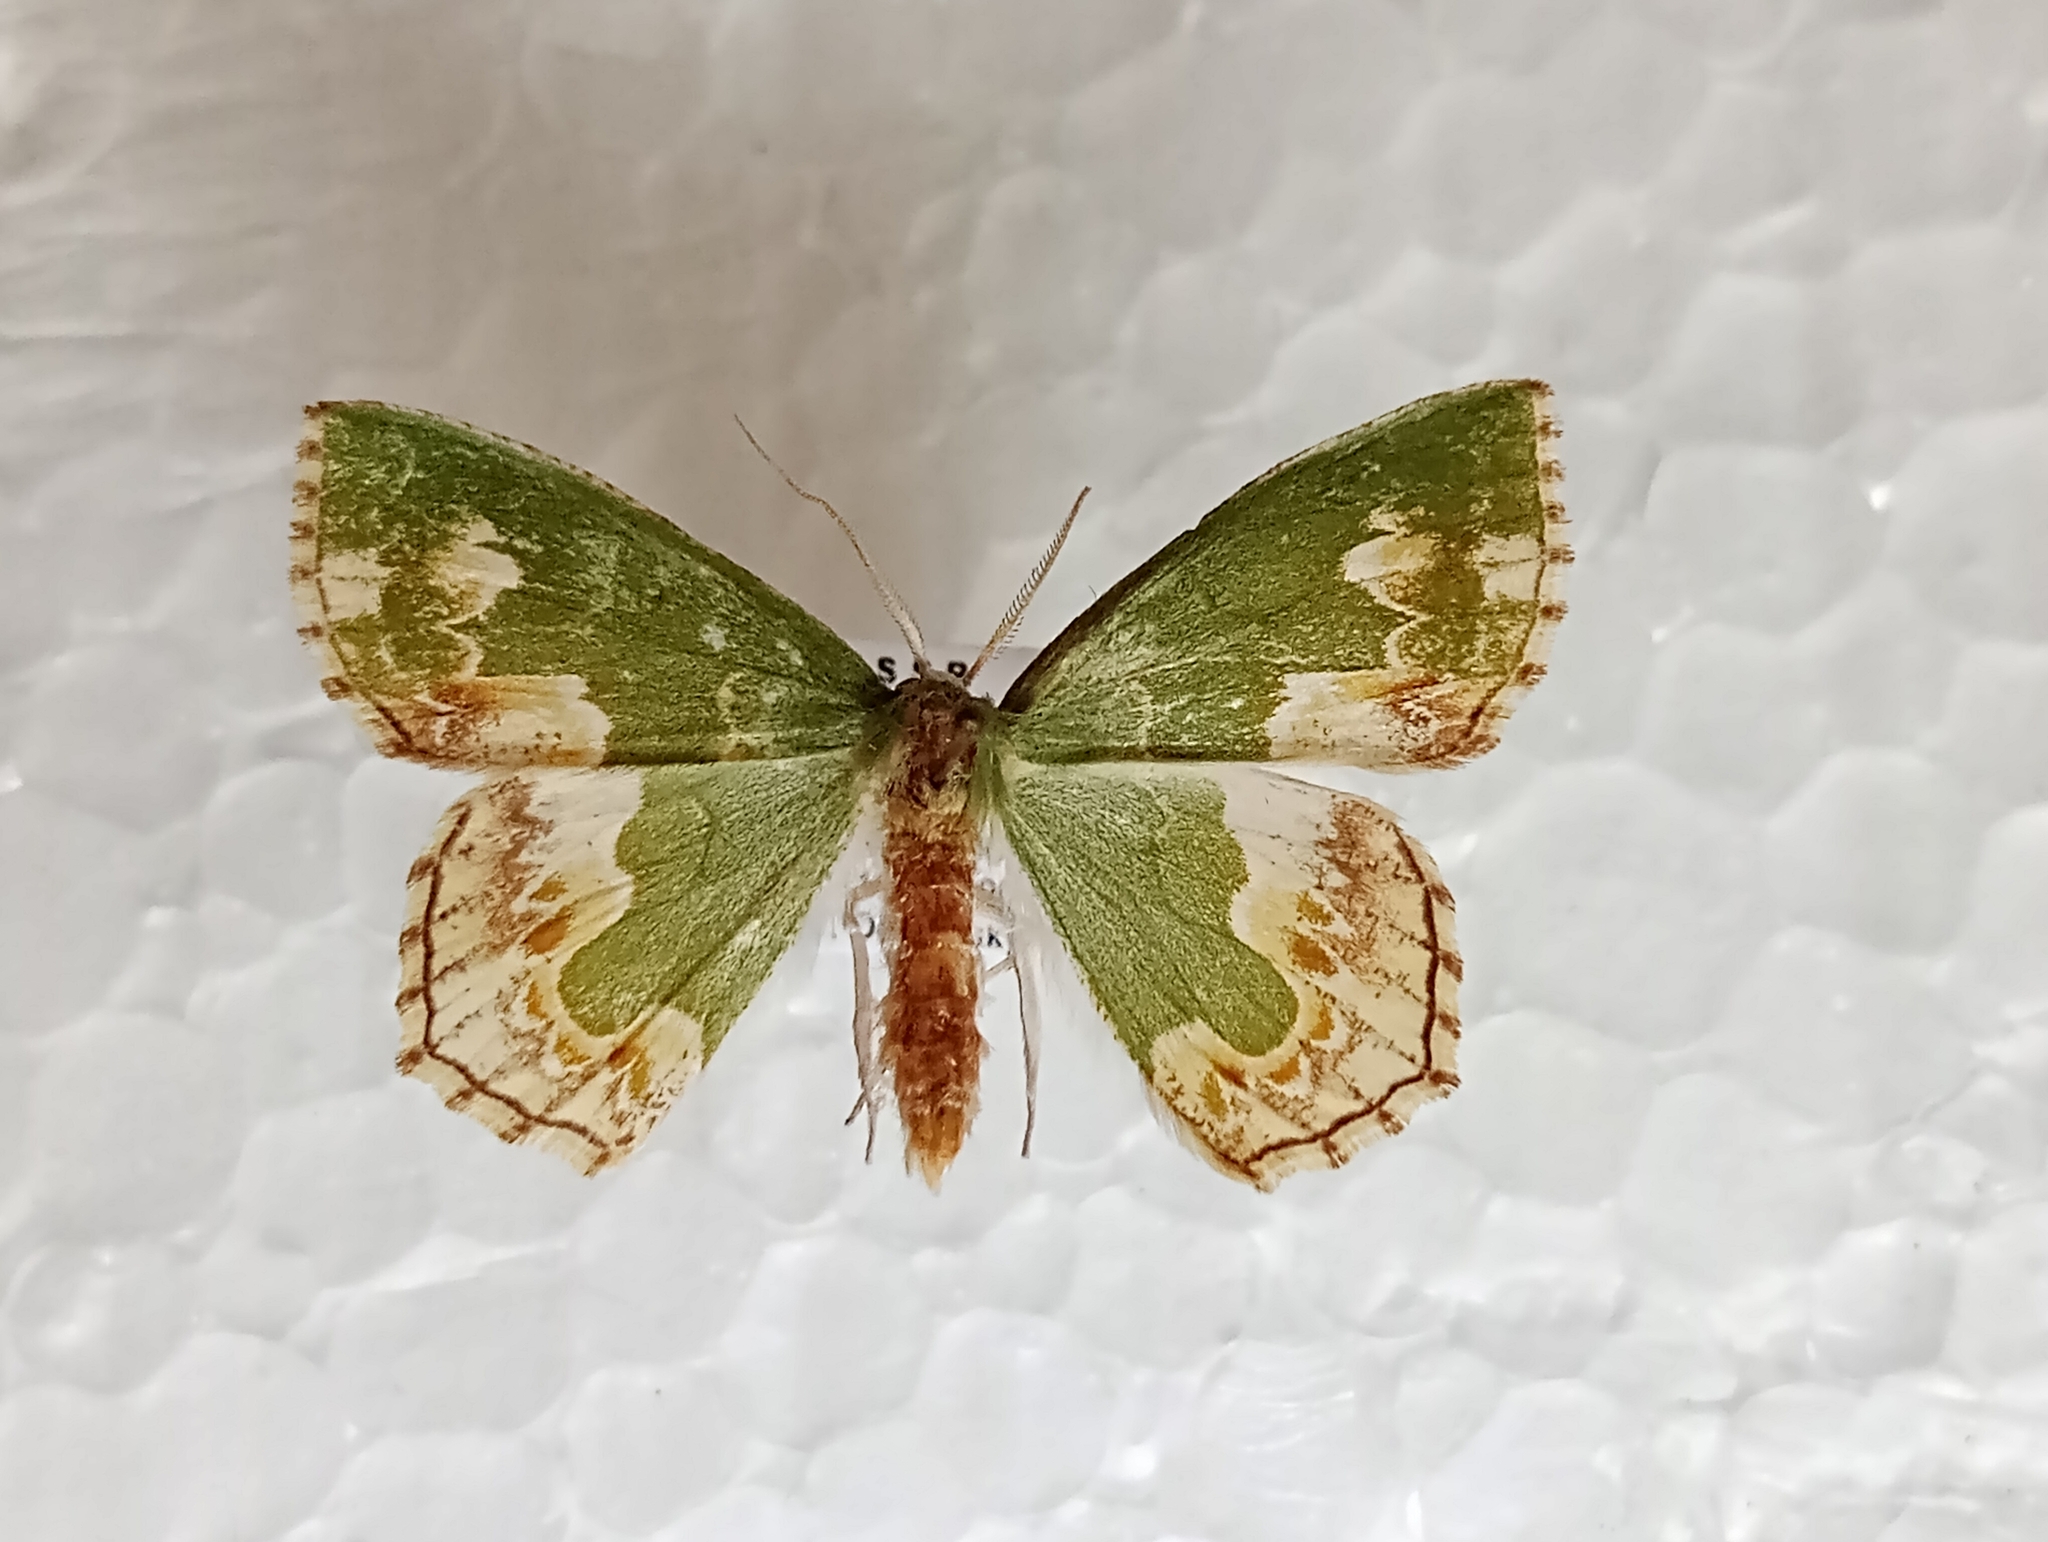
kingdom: Animalia
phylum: Arthropoda
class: Insecta
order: Lepidoptera
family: Geometridae
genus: Eucyclodes
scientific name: Eucyclodes difficta
